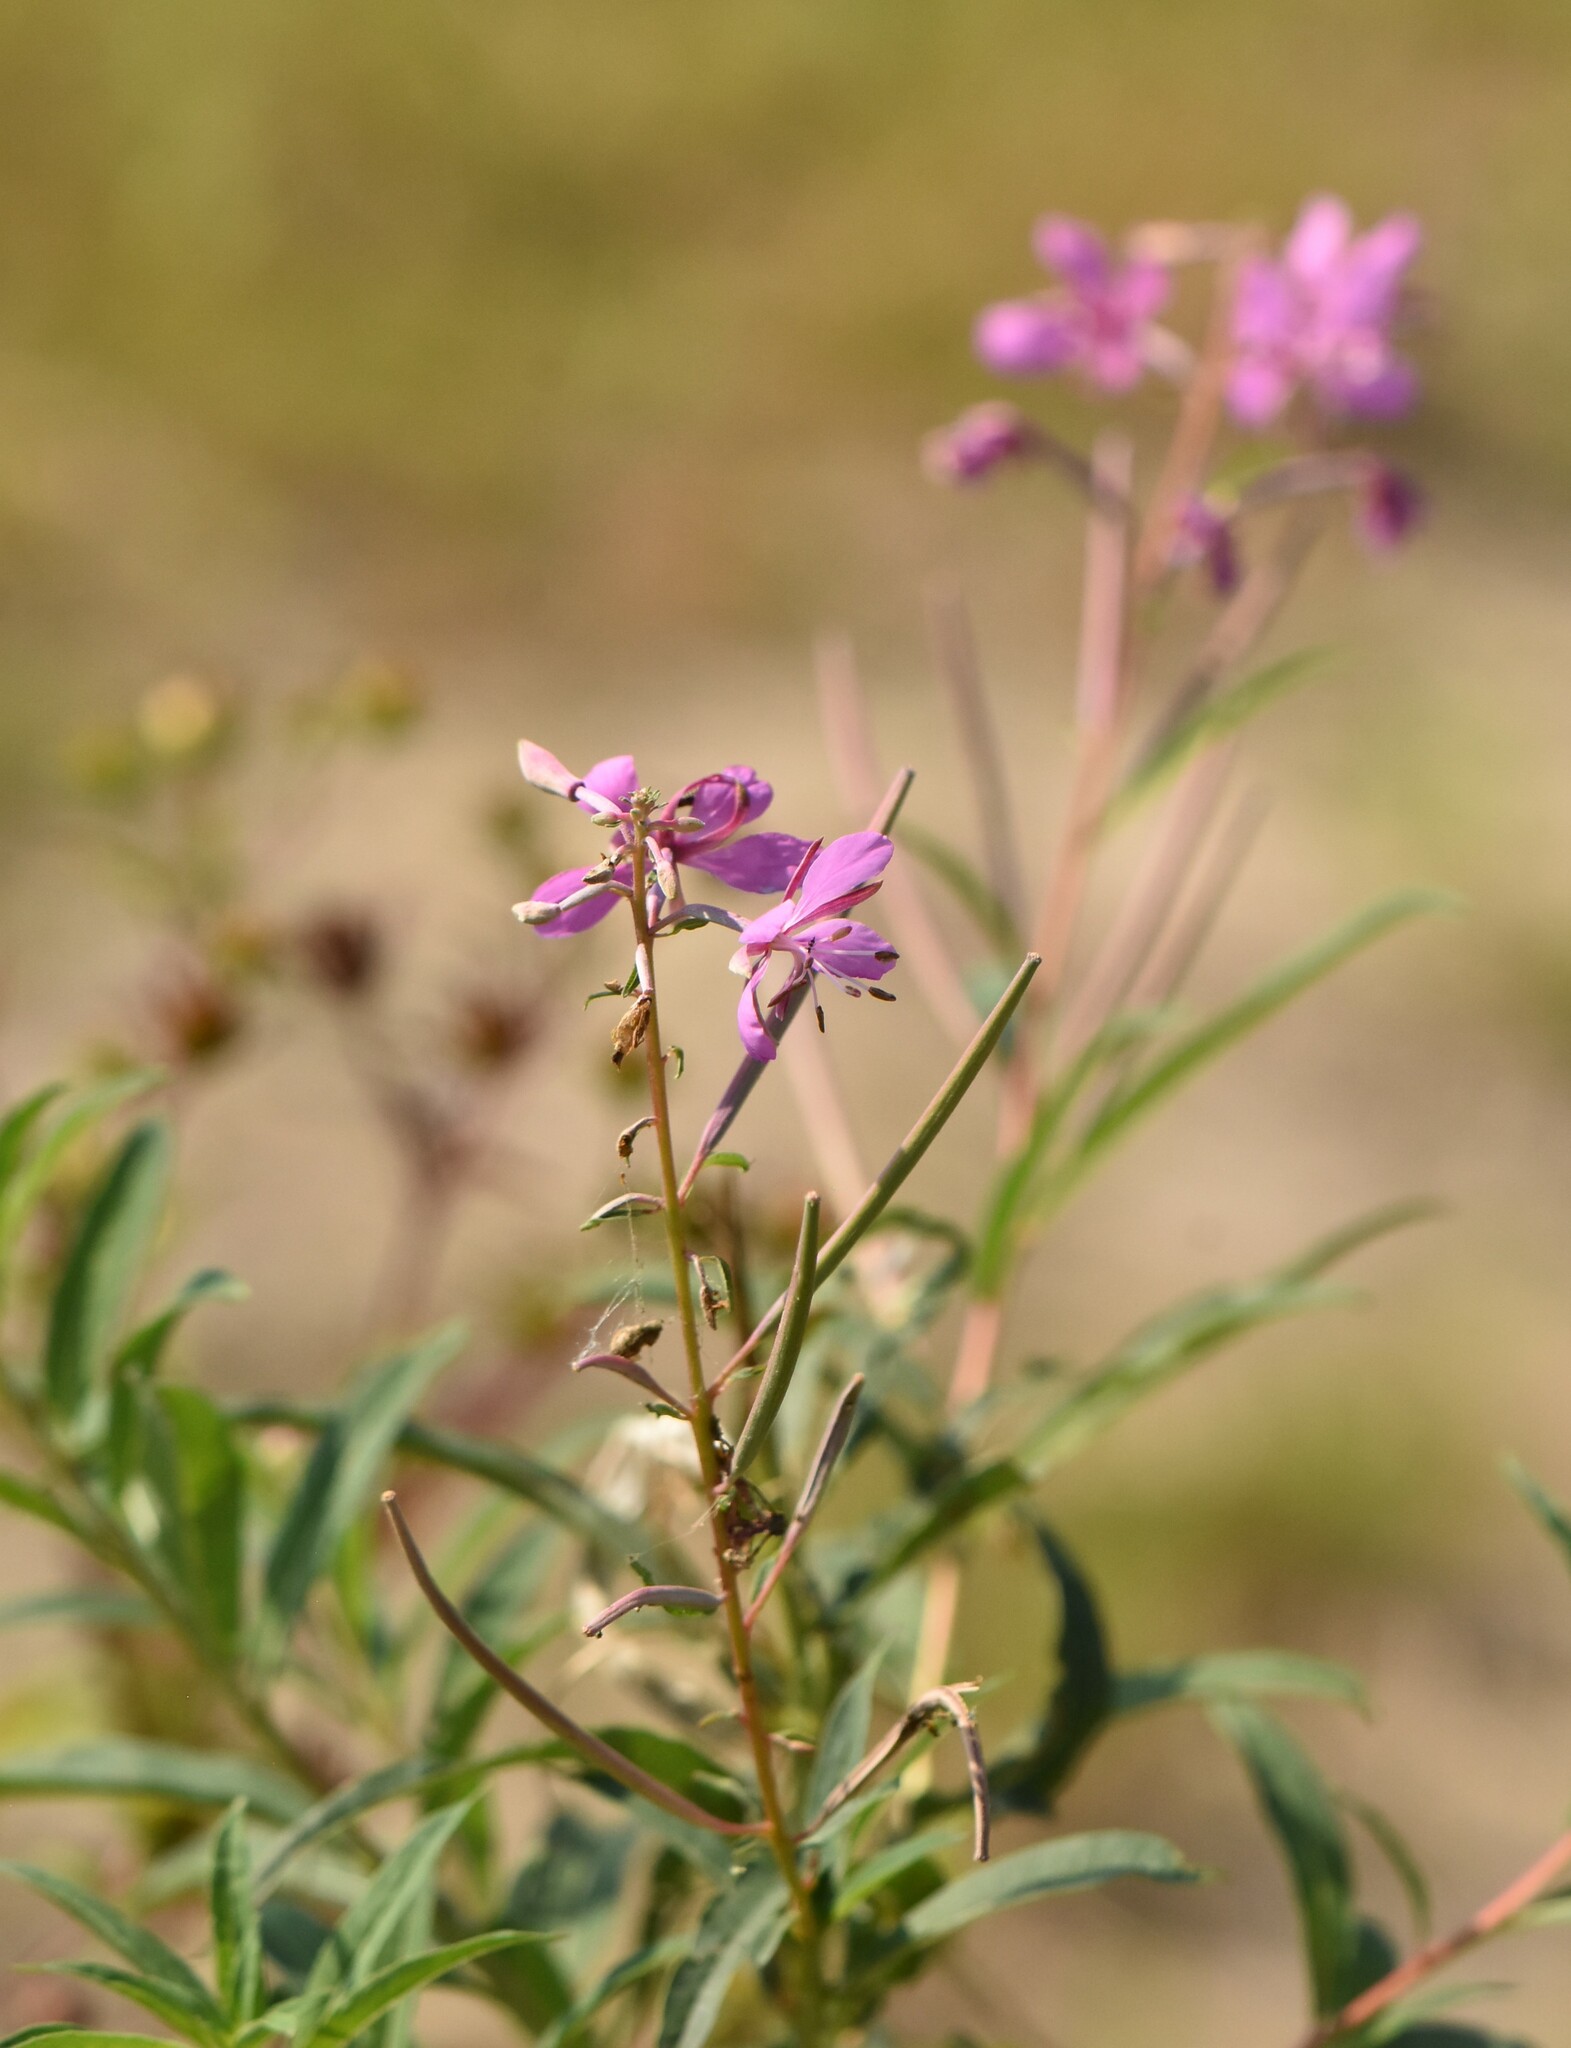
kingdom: Plantae
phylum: Tracheophyta
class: Magnoliopsida
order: Myrtales
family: Onagraceae
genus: Chamaenerion
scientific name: Chamaenerion angustifolium
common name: Fireweed
